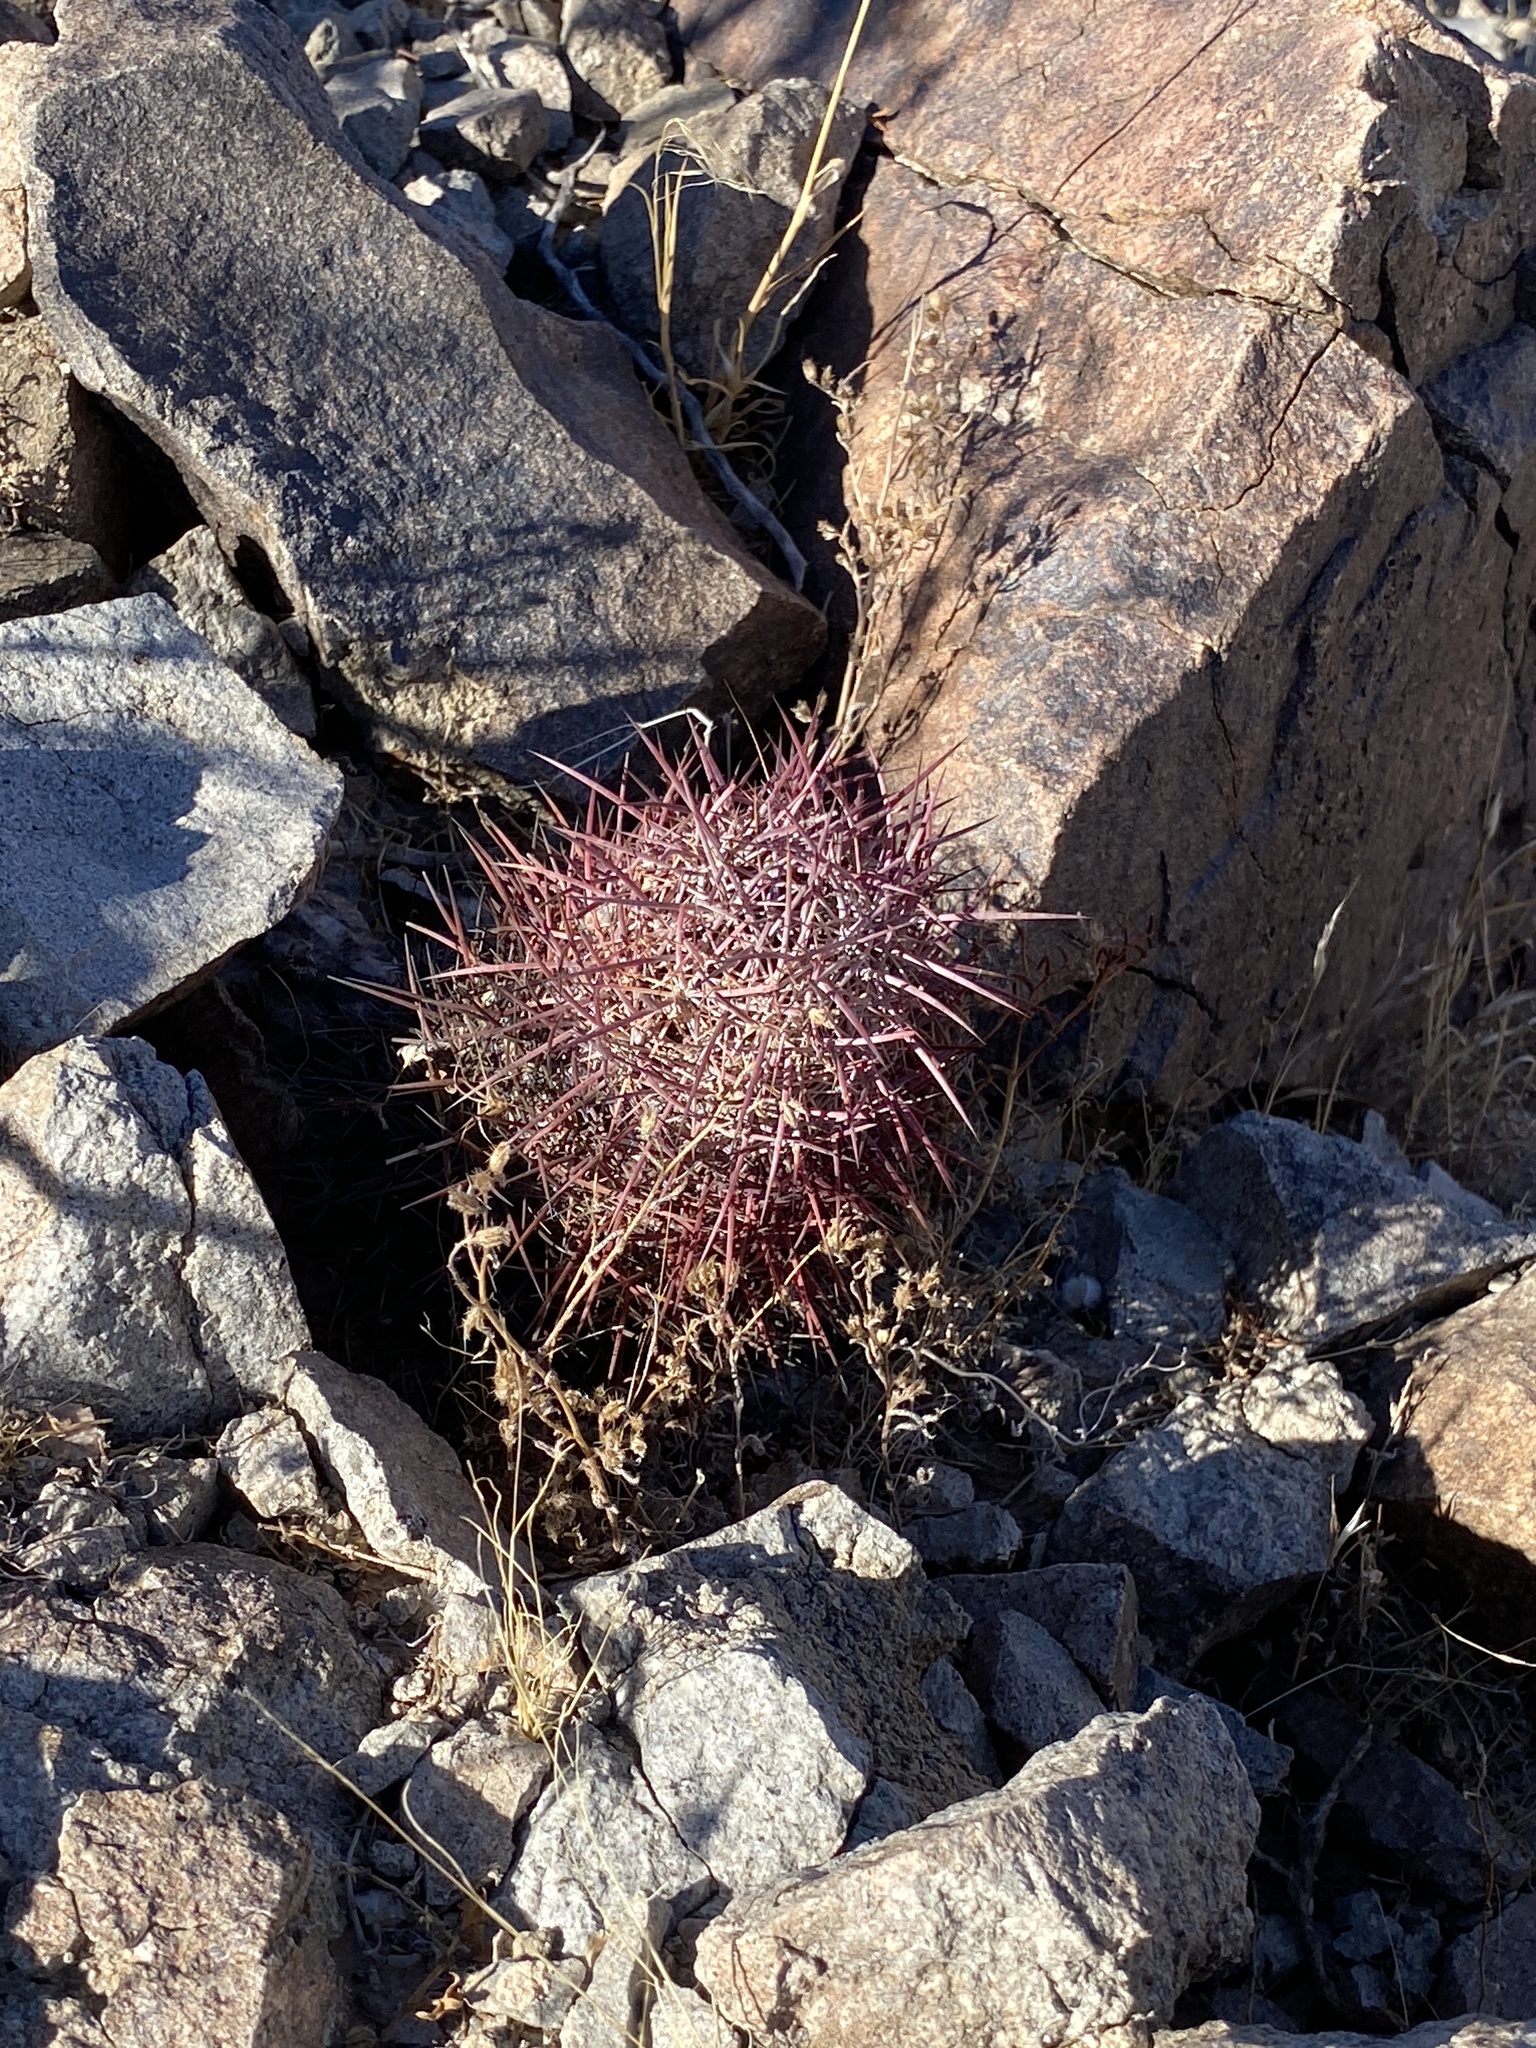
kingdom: Plantae
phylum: Tracheophyta
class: Magnoliopsida
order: Caryophyllales
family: Cactaceae
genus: Sclerocactus
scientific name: Sclerocactus johnsonii
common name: Eight-spine fishhook cactus
